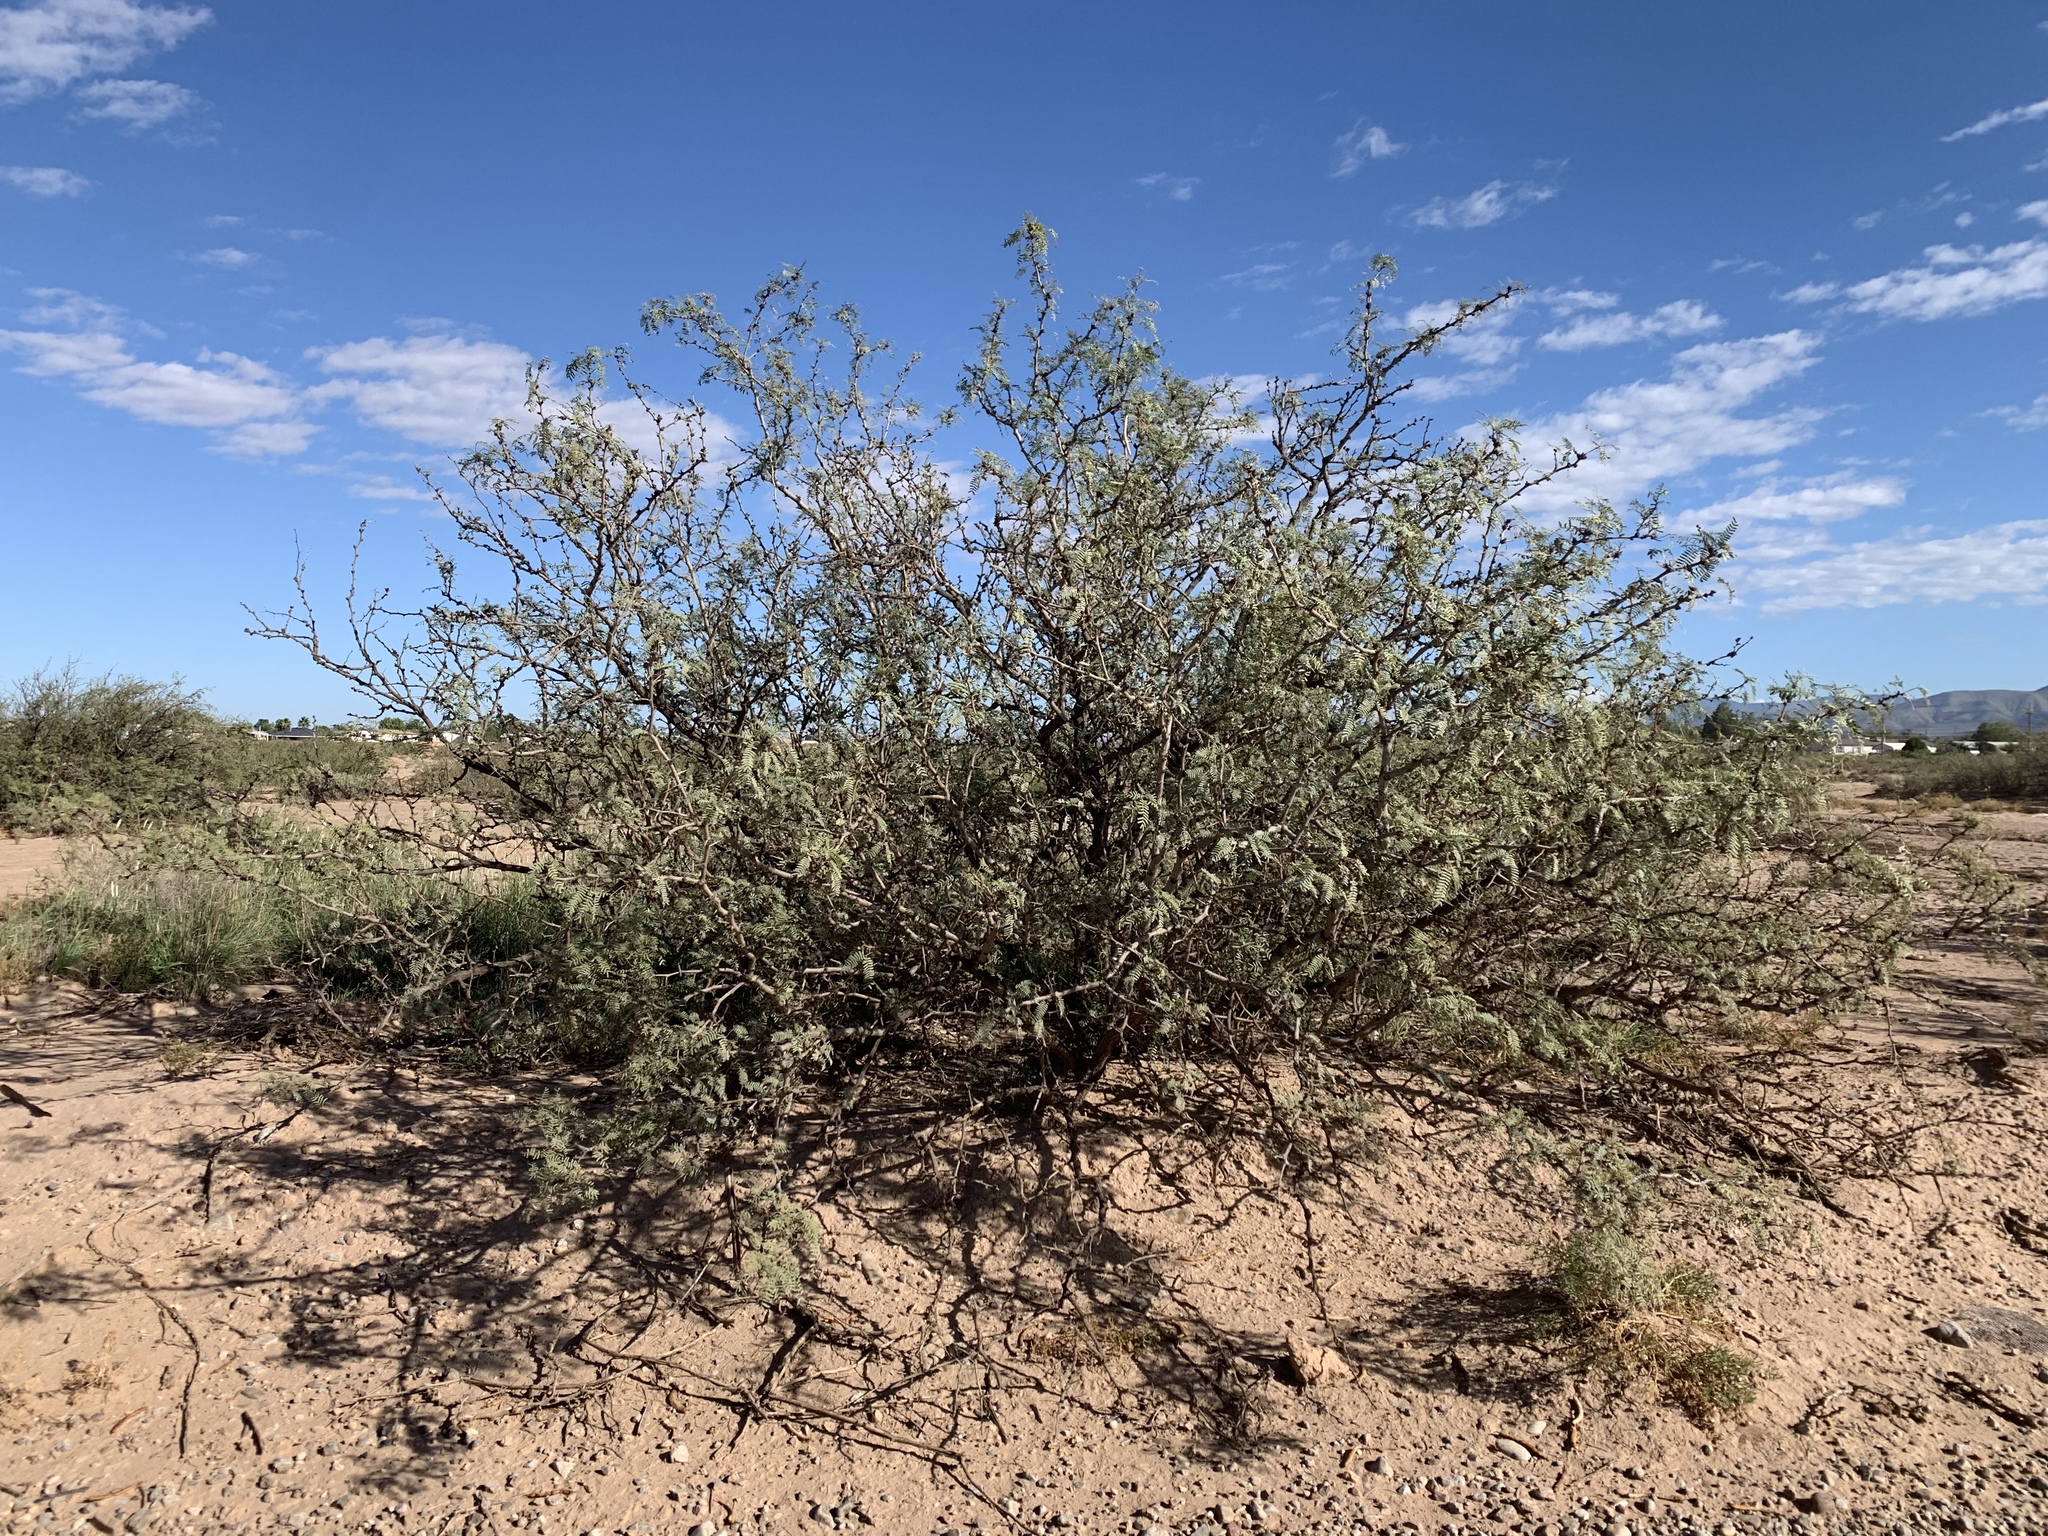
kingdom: Plantae
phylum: Tracheophyta
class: Magnoliopsida
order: Fabales
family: Fabaceae
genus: Prosopis
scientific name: Prosopis glandulosa
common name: Honey mesquite
